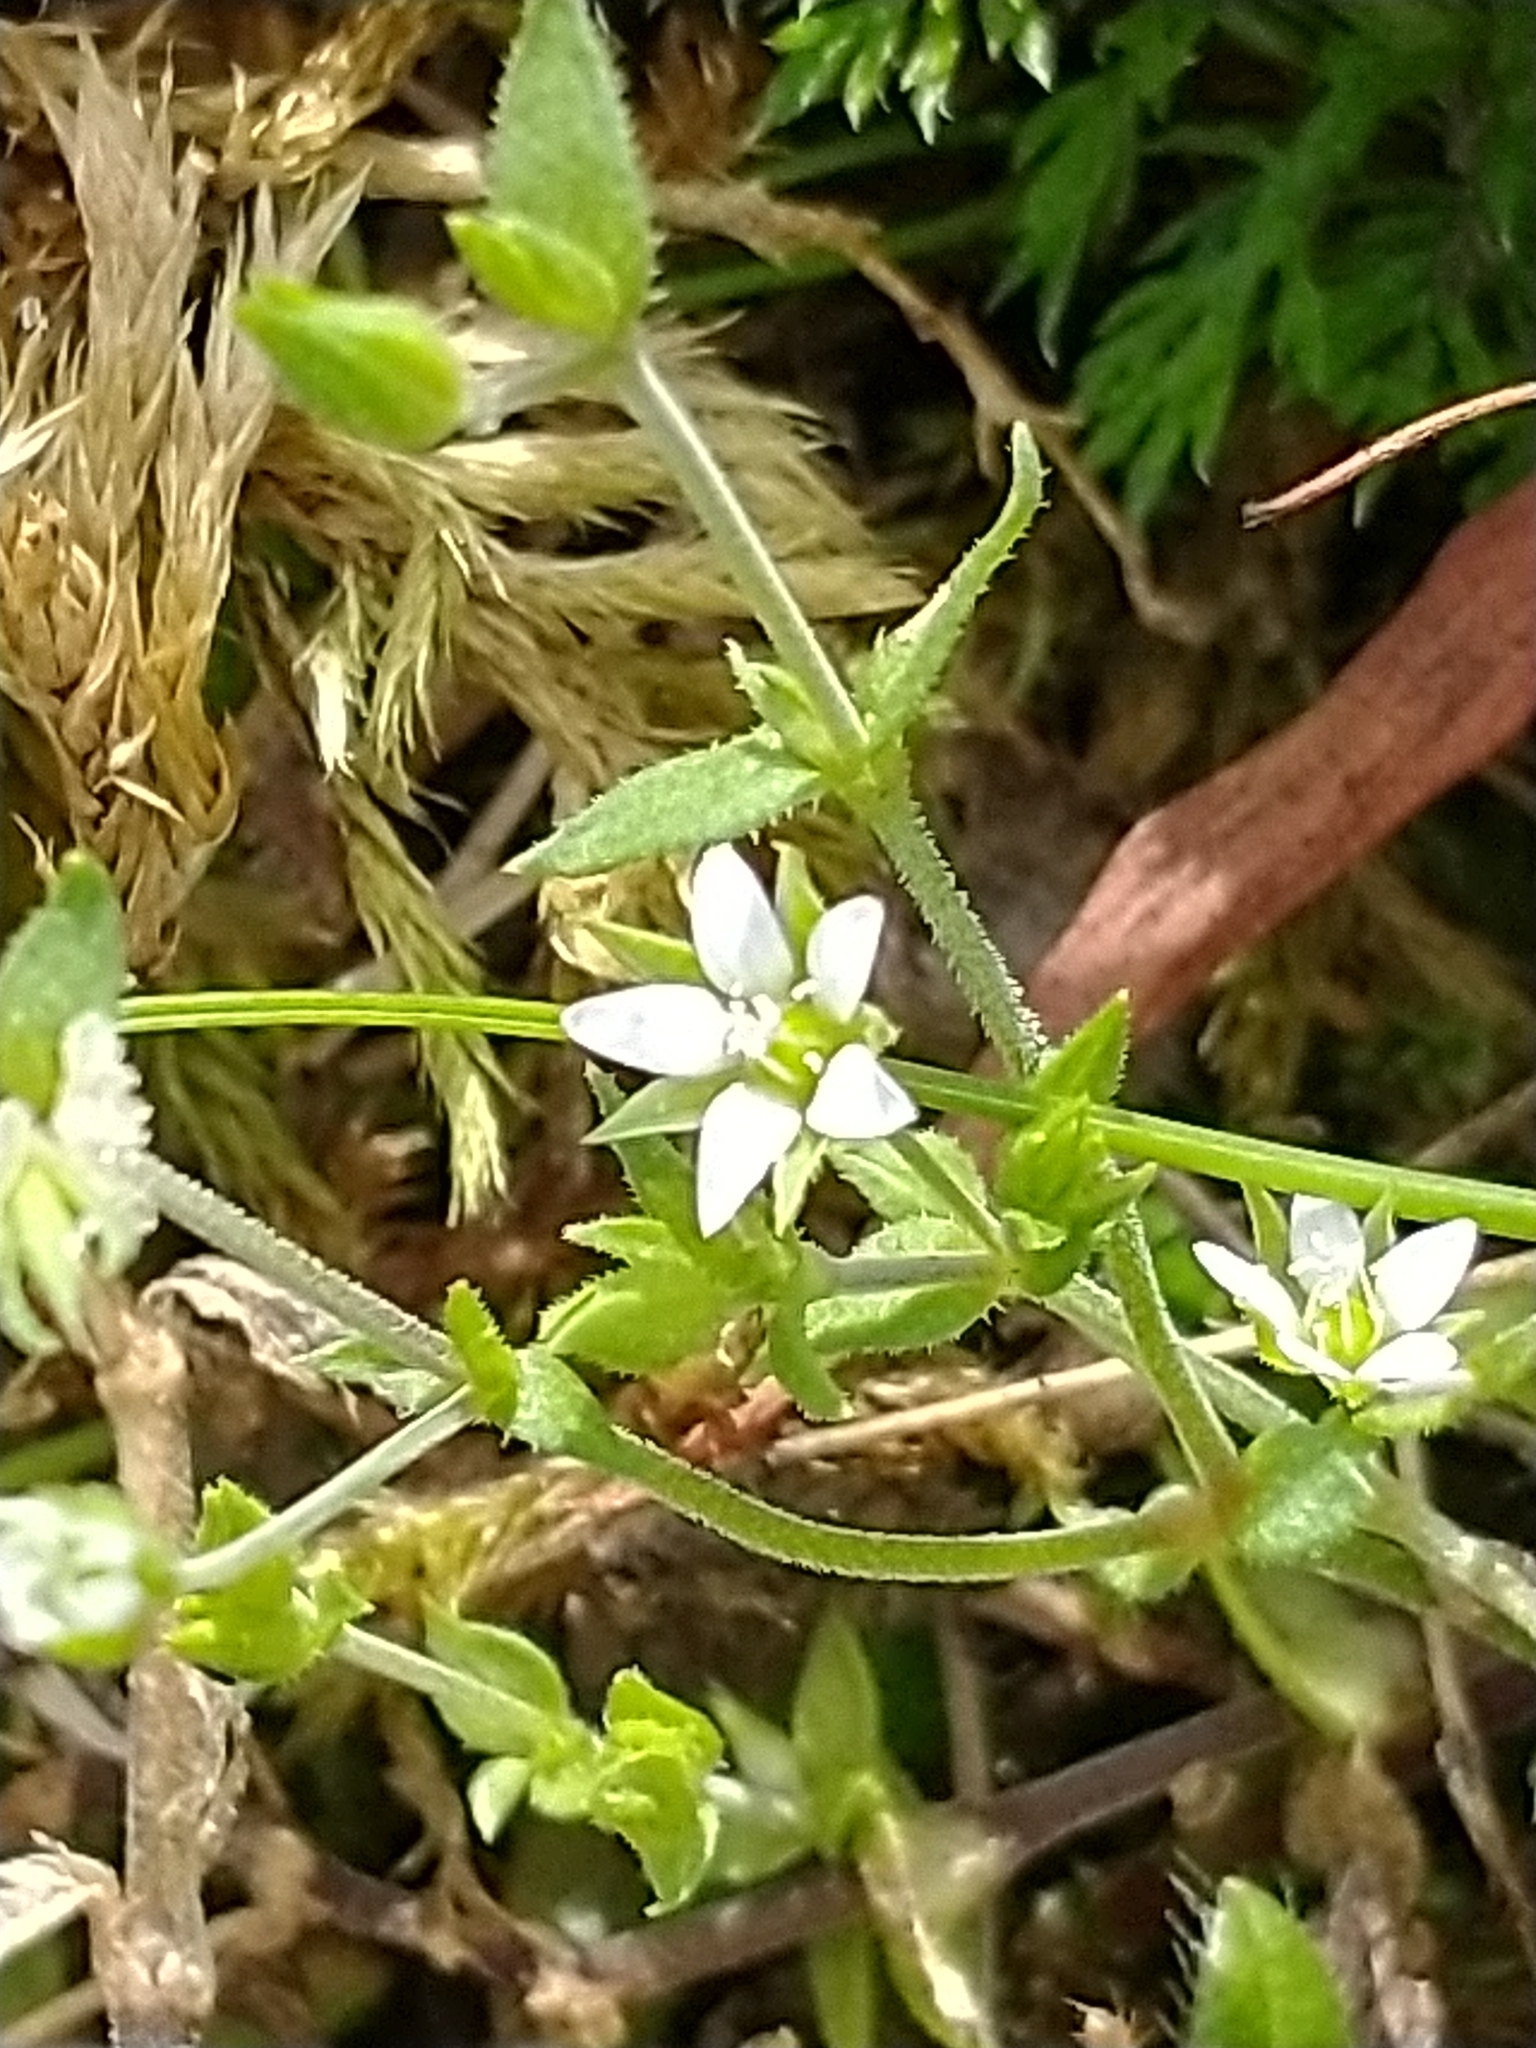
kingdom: Plantae
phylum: Tracheophyta
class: Magnoliopsida
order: Caryophyllales
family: Caryophyllaceae
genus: Arenaria
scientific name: Arenaria serpyllifolia
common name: Thyme-leaved sandwort
